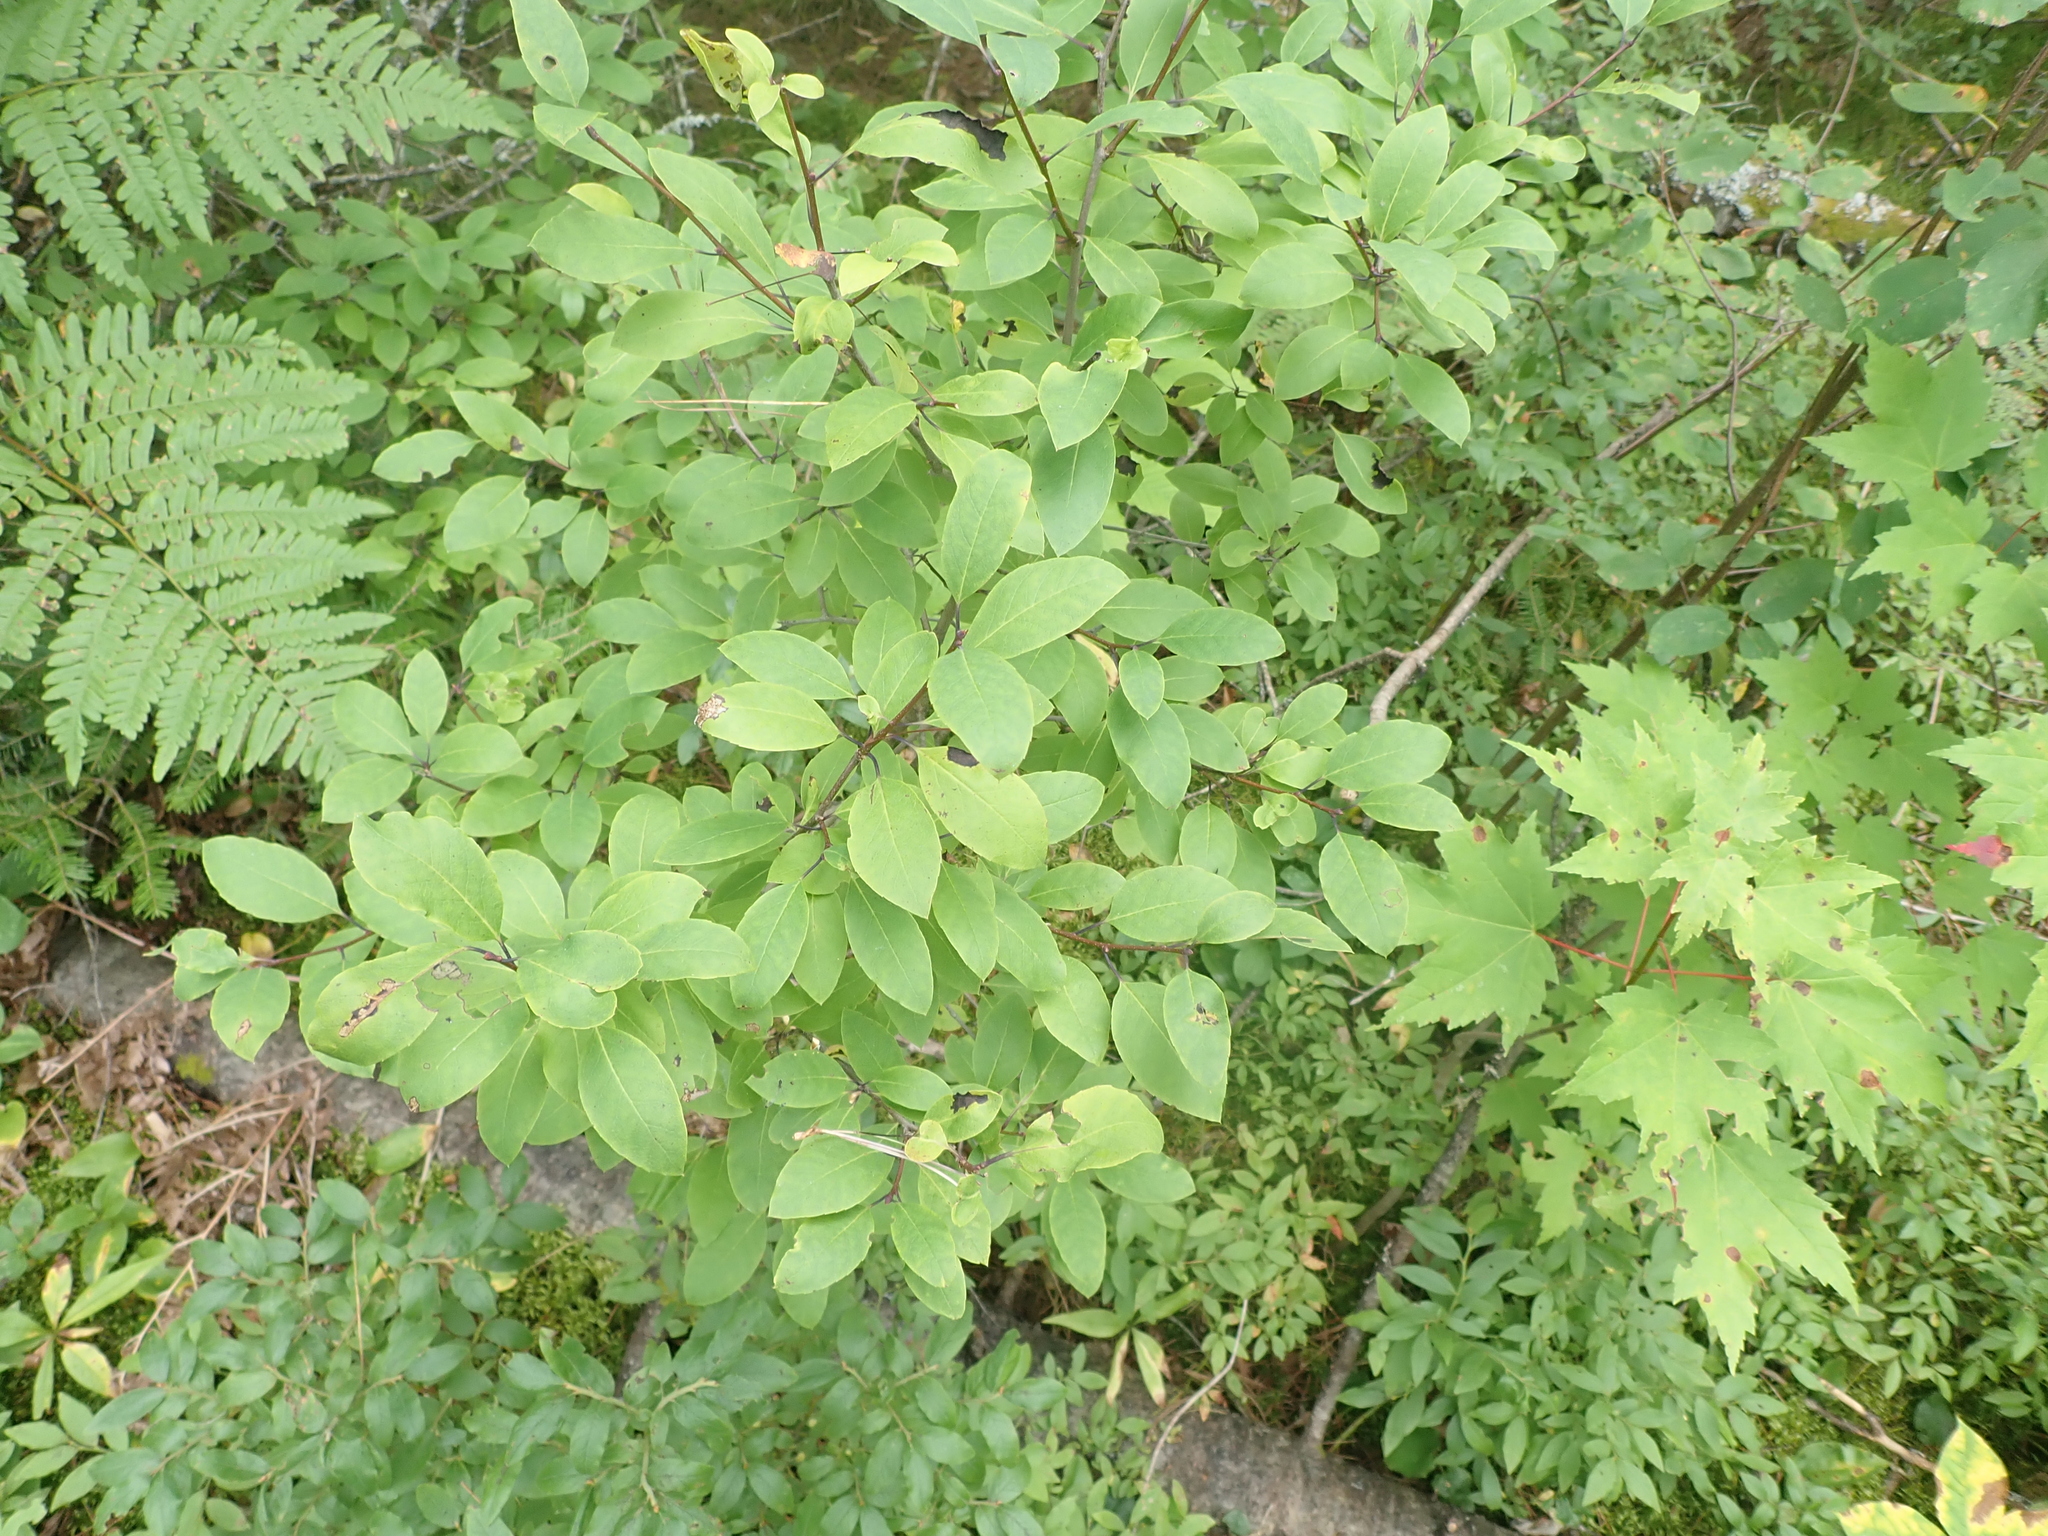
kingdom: Plantae
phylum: Tracheophyta
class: Magnoliopsida
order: Aquifoliales
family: Aquifoliaceae
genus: Ilex
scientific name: Ilex mucronata
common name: Catberry
